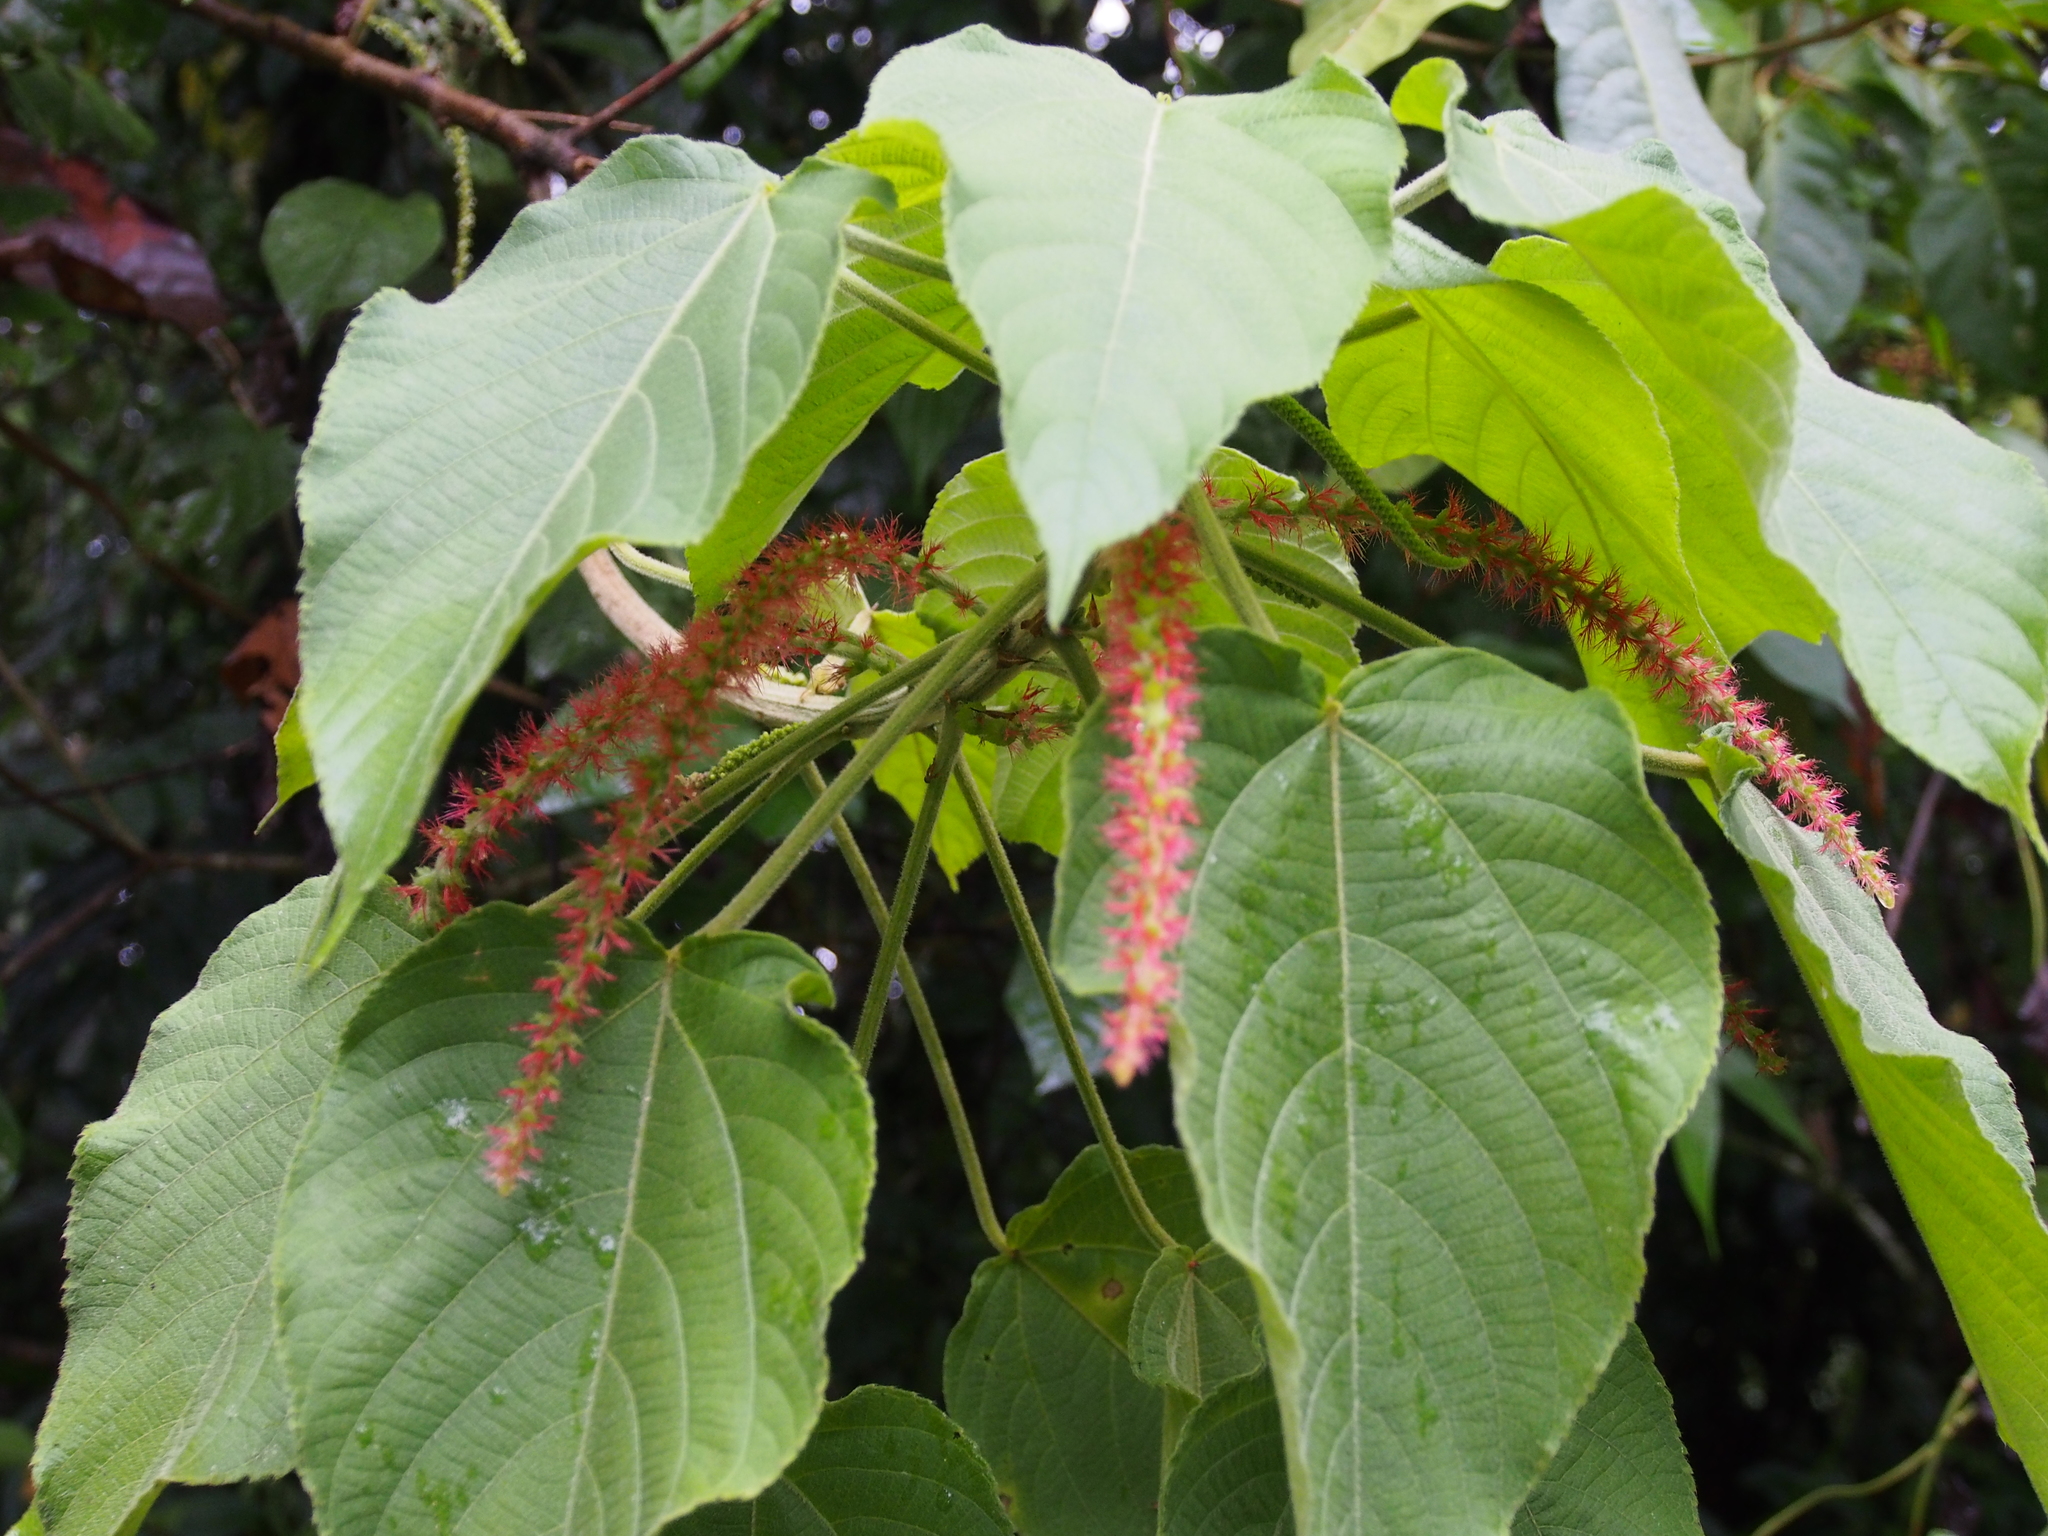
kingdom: Plantae
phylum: Tracheophyta
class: Magnoliopsida
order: Malpighiales
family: Euphorbiaceae
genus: Acalypha
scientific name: Acalypha macrostachya
